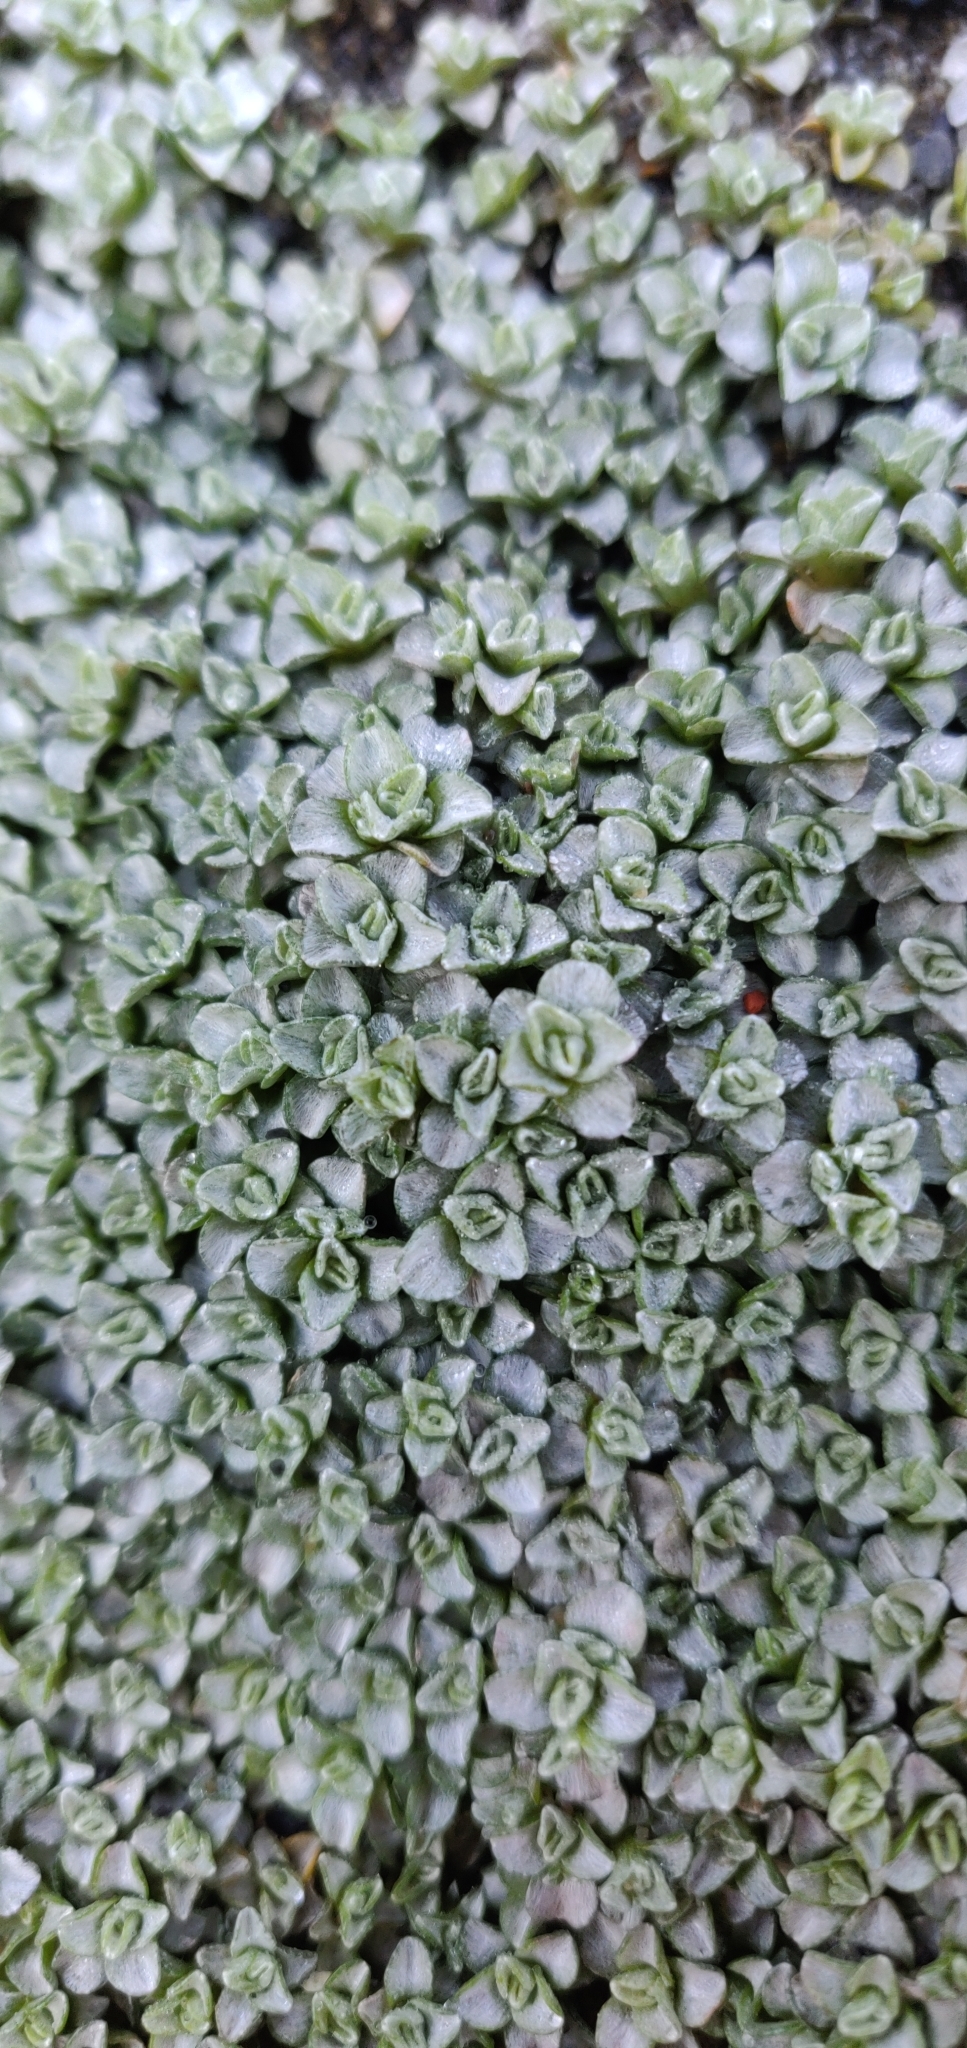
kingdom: Plantae
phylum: Tracheophyta
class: Magnoliopsida
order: Asterales
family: Asteraceae
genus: Raoulia
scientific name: Raoulia hookeri
